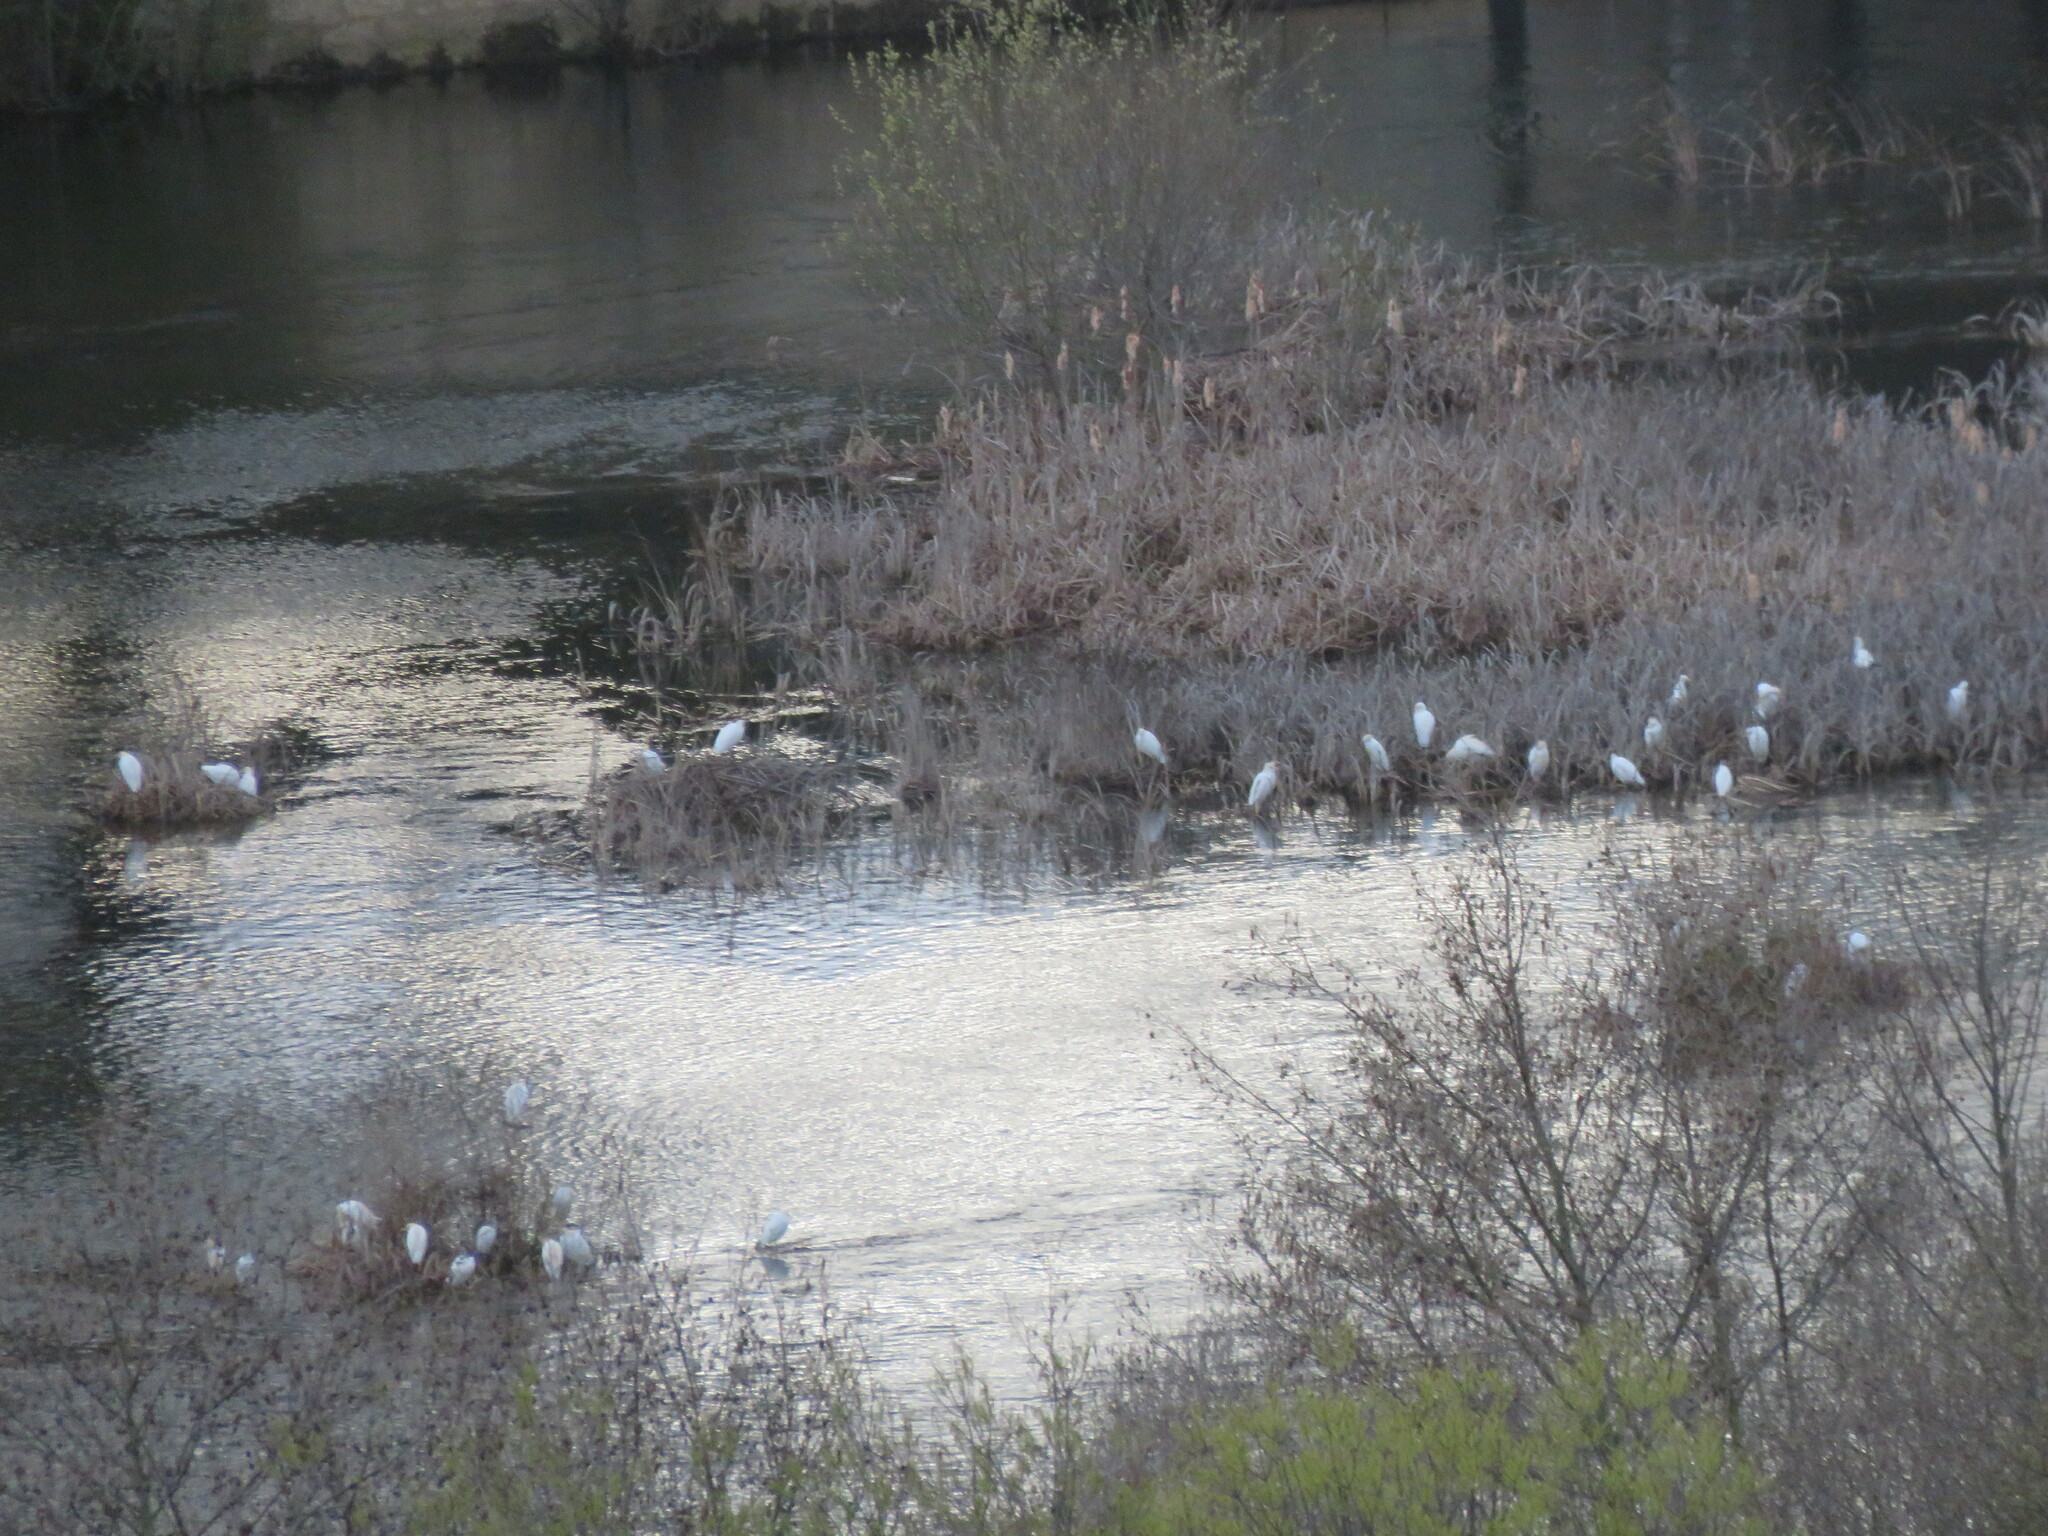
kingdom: Animalia
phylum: Chordata
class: Aves
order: Pelecaniformes
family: Ardeidae
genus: Bubulcus
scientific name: Bubulcus ibis
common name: Cattle egret
